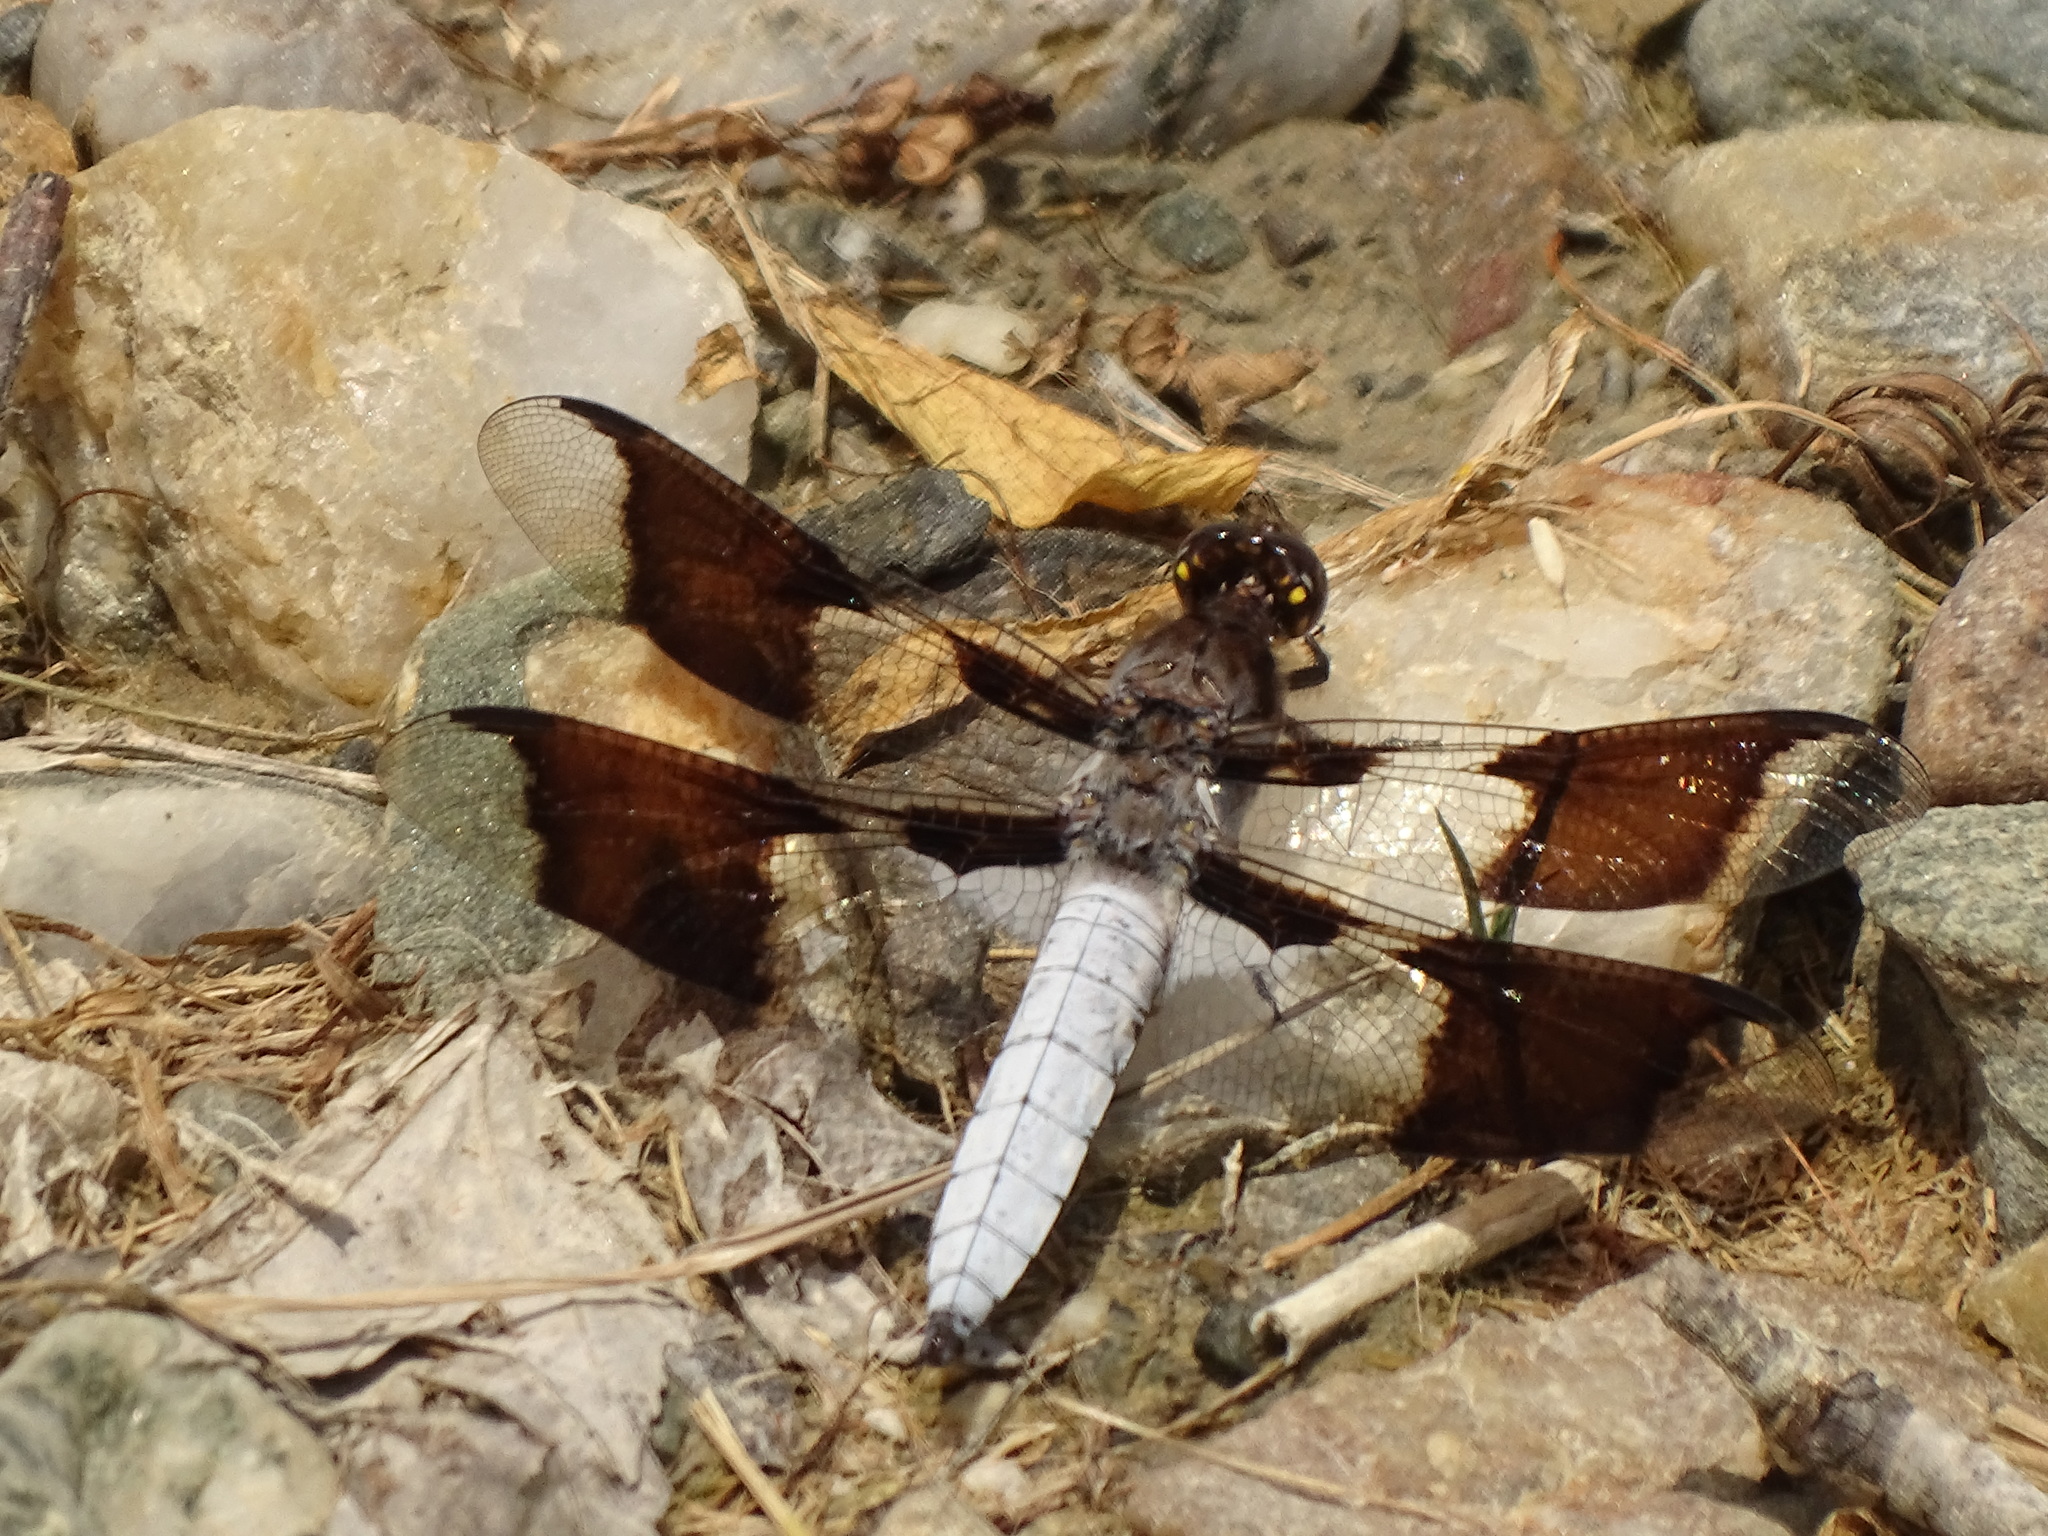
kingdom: Animalia
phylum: Arthropoda
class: Insecta
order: Odonata
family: Libellulidae
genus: Plathemis
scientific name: Plathemis lydia
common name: Common whitetail
